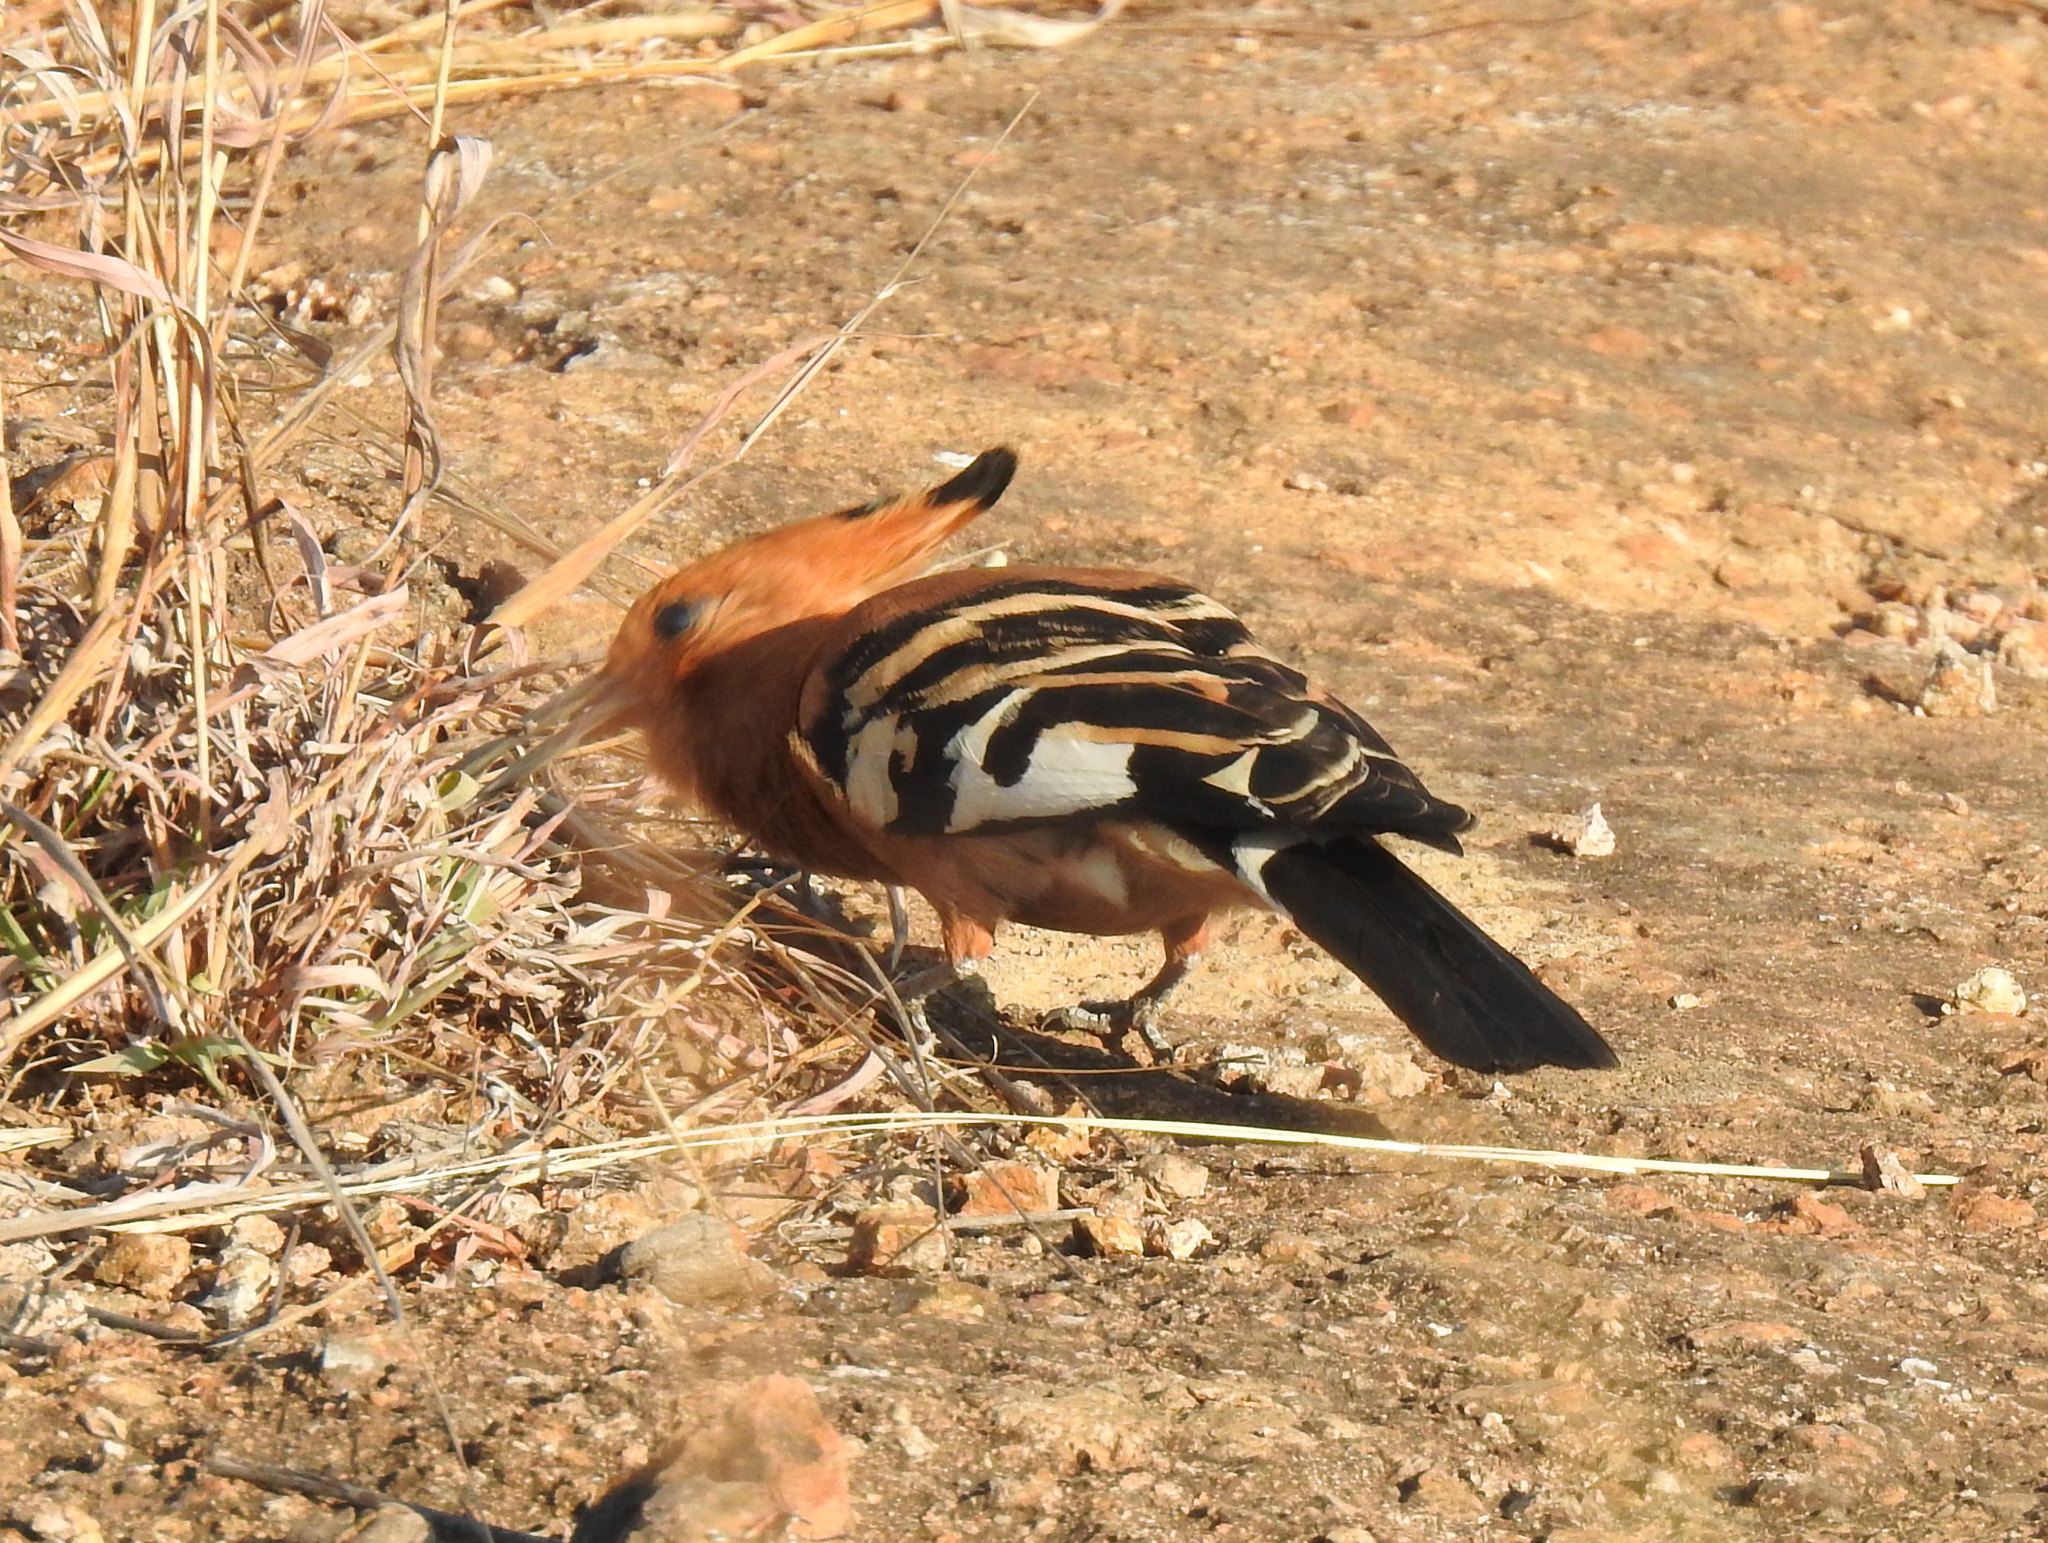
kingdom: Animalia
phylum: Chordata
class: Aves
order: Bucerotiformes
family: Upupidae
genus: Upupa
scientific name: Upupa africana
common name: African hoopoe
